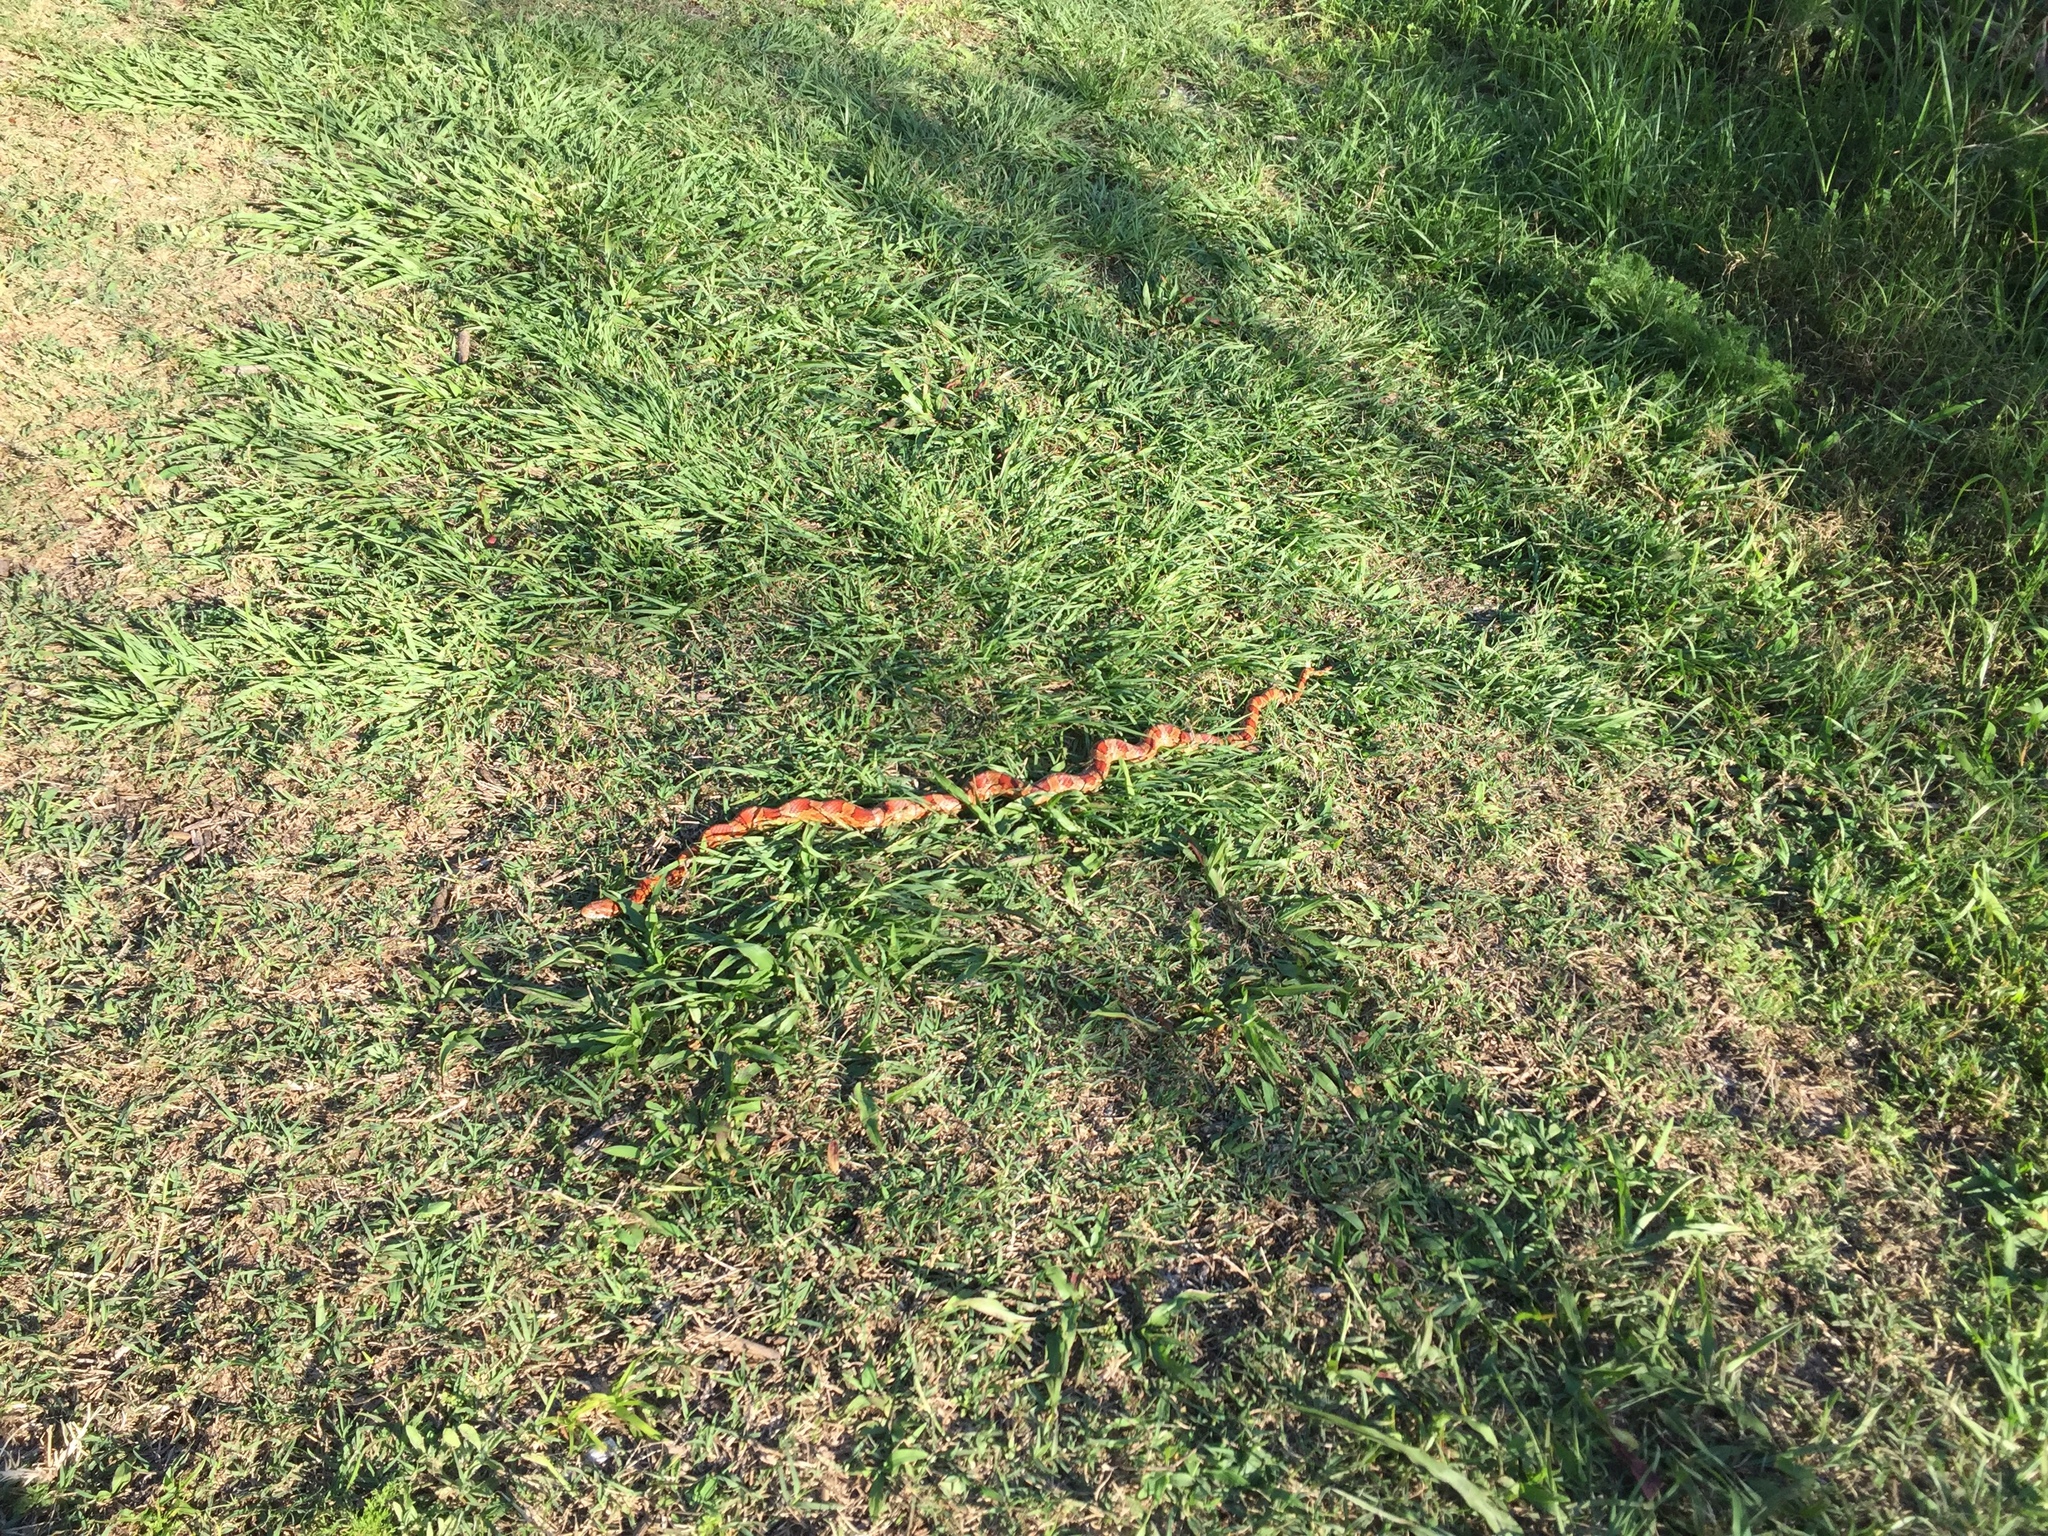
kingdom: Animalia
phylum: Chordata
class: Squamata
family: Colubridae
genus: Pantherophis
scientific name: Pantherophis guttatus
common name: Red cornsnake
